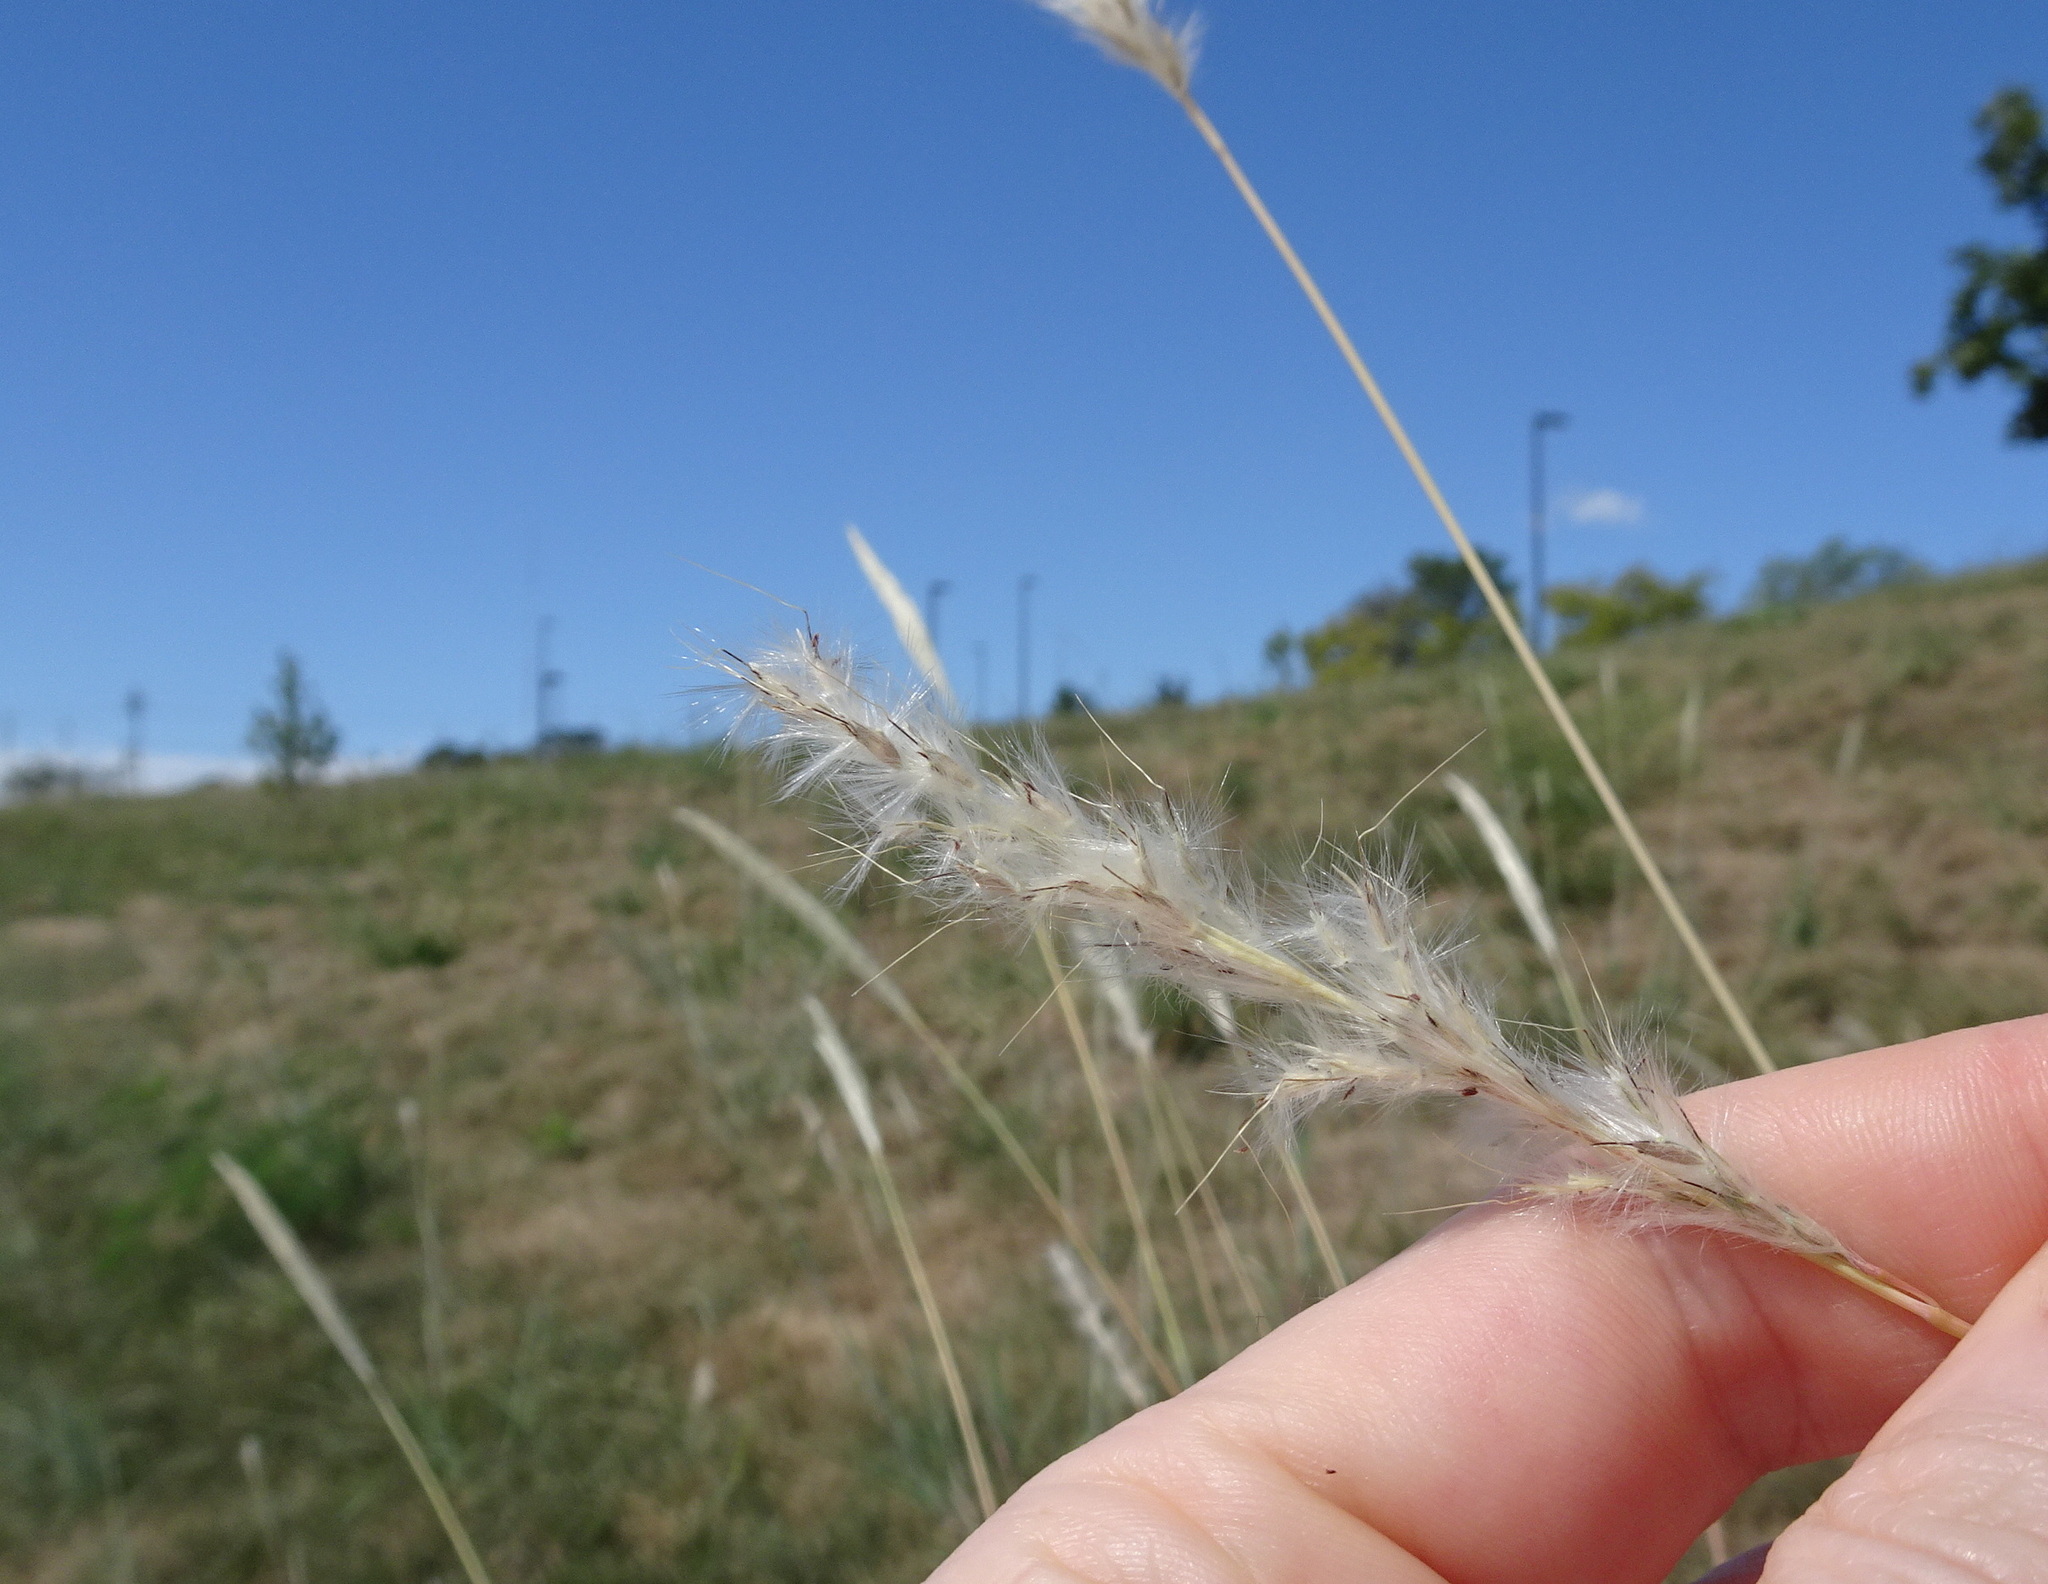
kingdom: Plantae
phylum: Tracheophyta
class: Liliopsida
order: Poales
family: Poaceae
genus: Bothriochloa
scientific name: Bothriochloa torreyana
